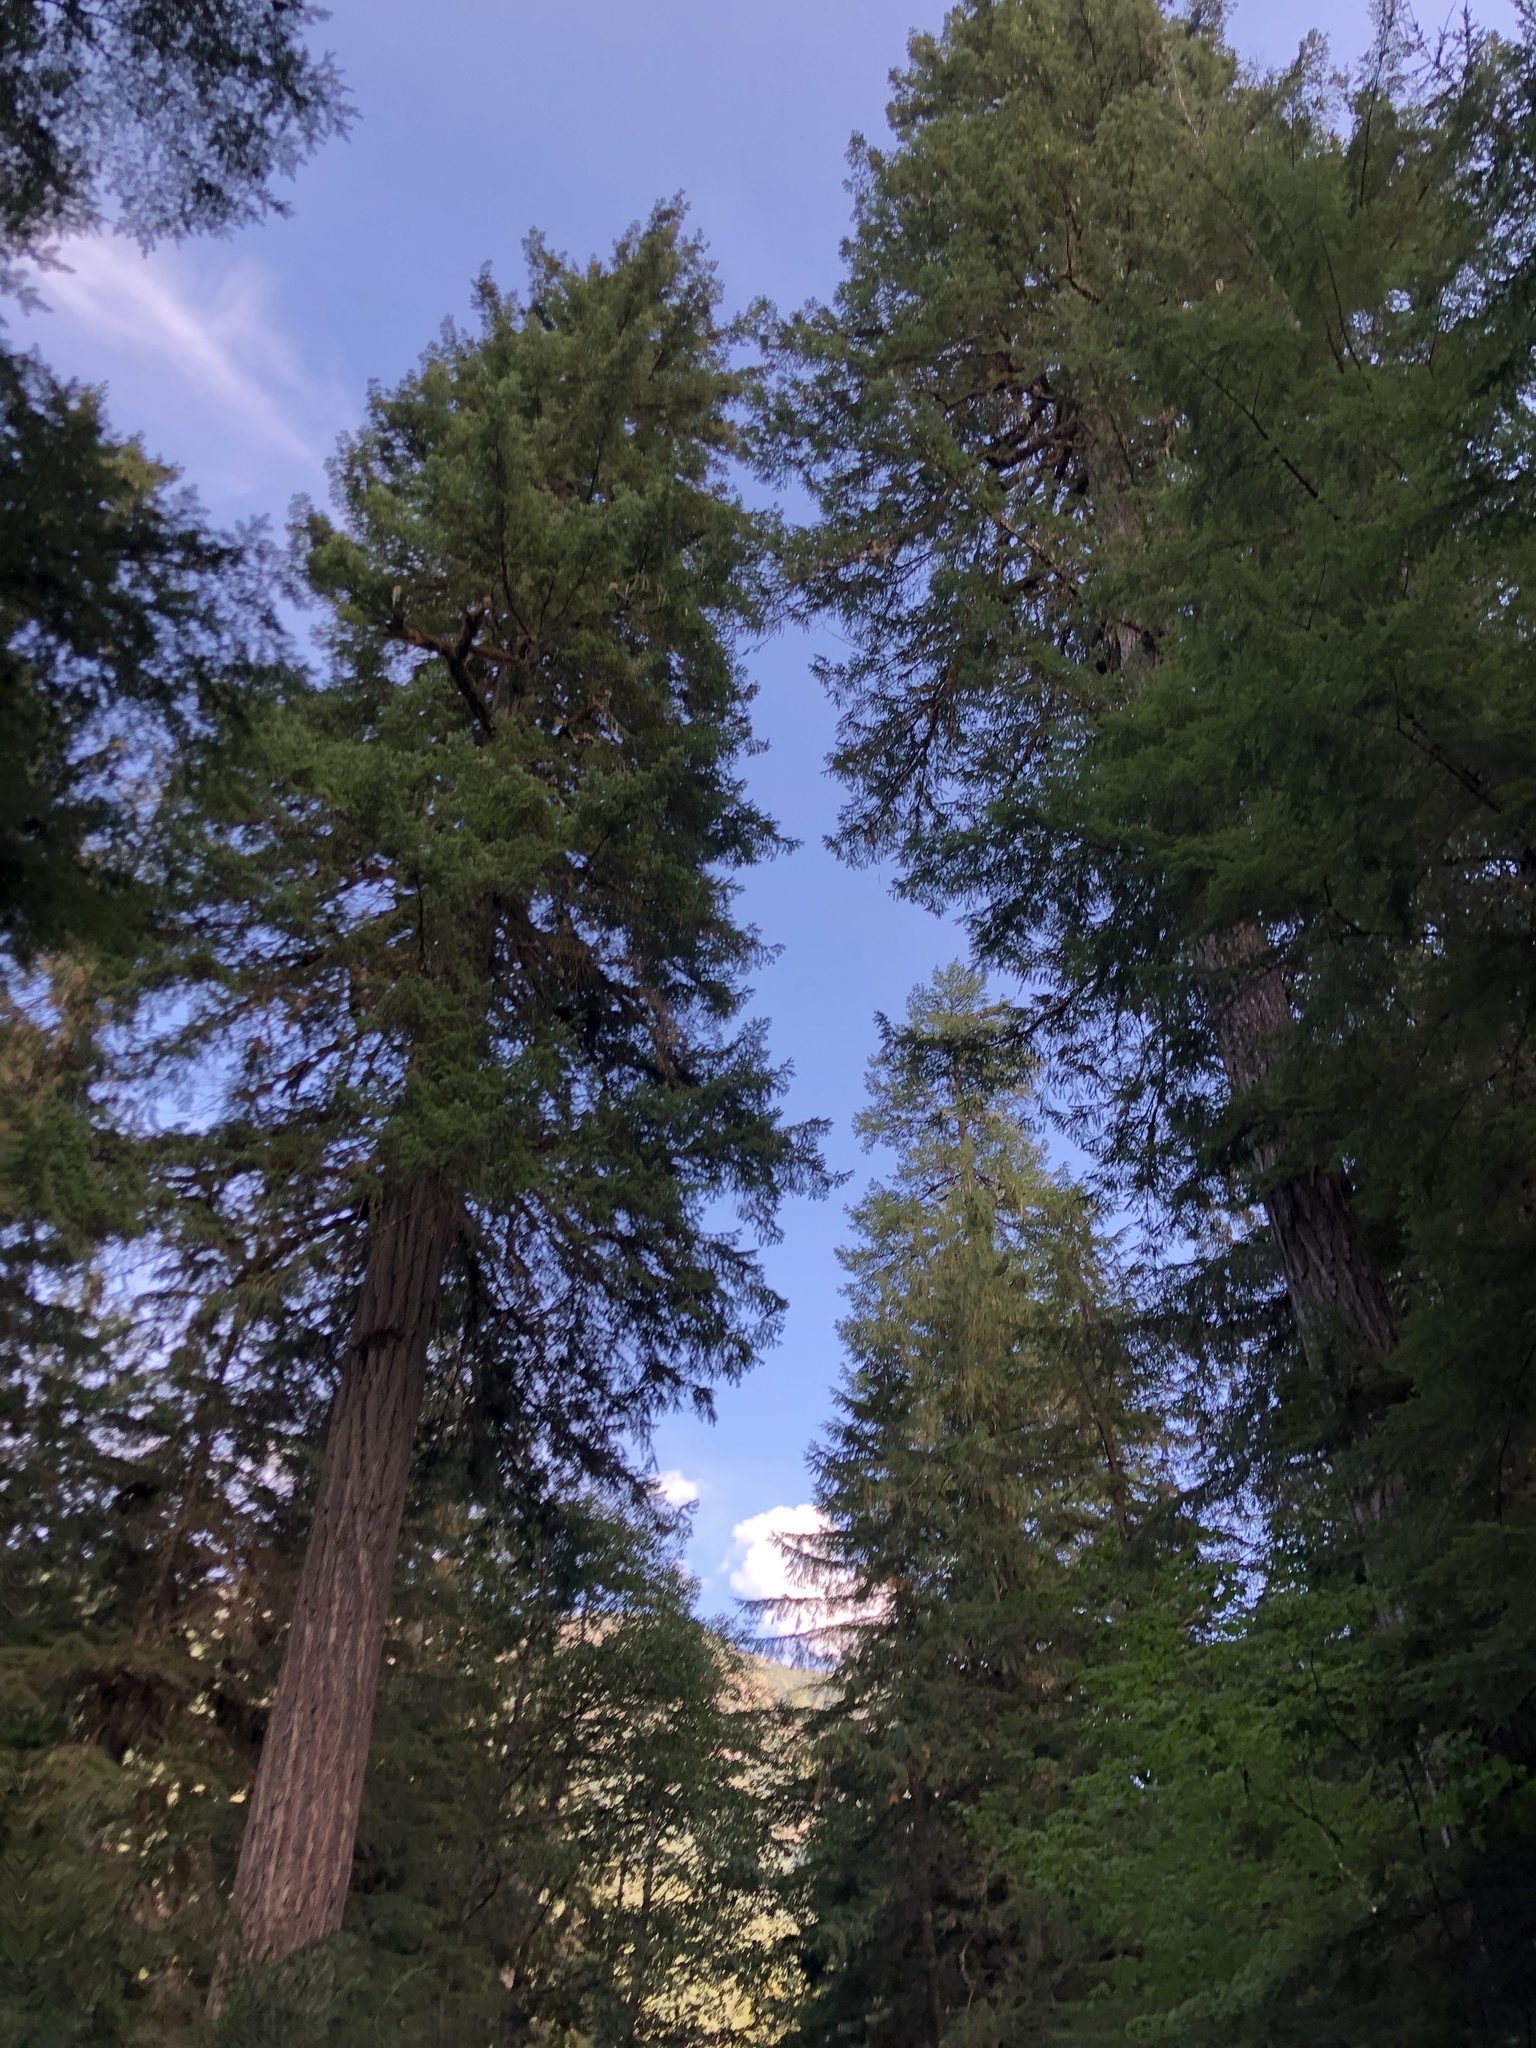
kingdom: Plantae
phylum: Tracheophyta
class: Pinopsida
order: Pinales
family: Pinaceae
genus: Pseudotsuga
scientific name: Pseudotsuga menziesii
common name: Douglas fir
